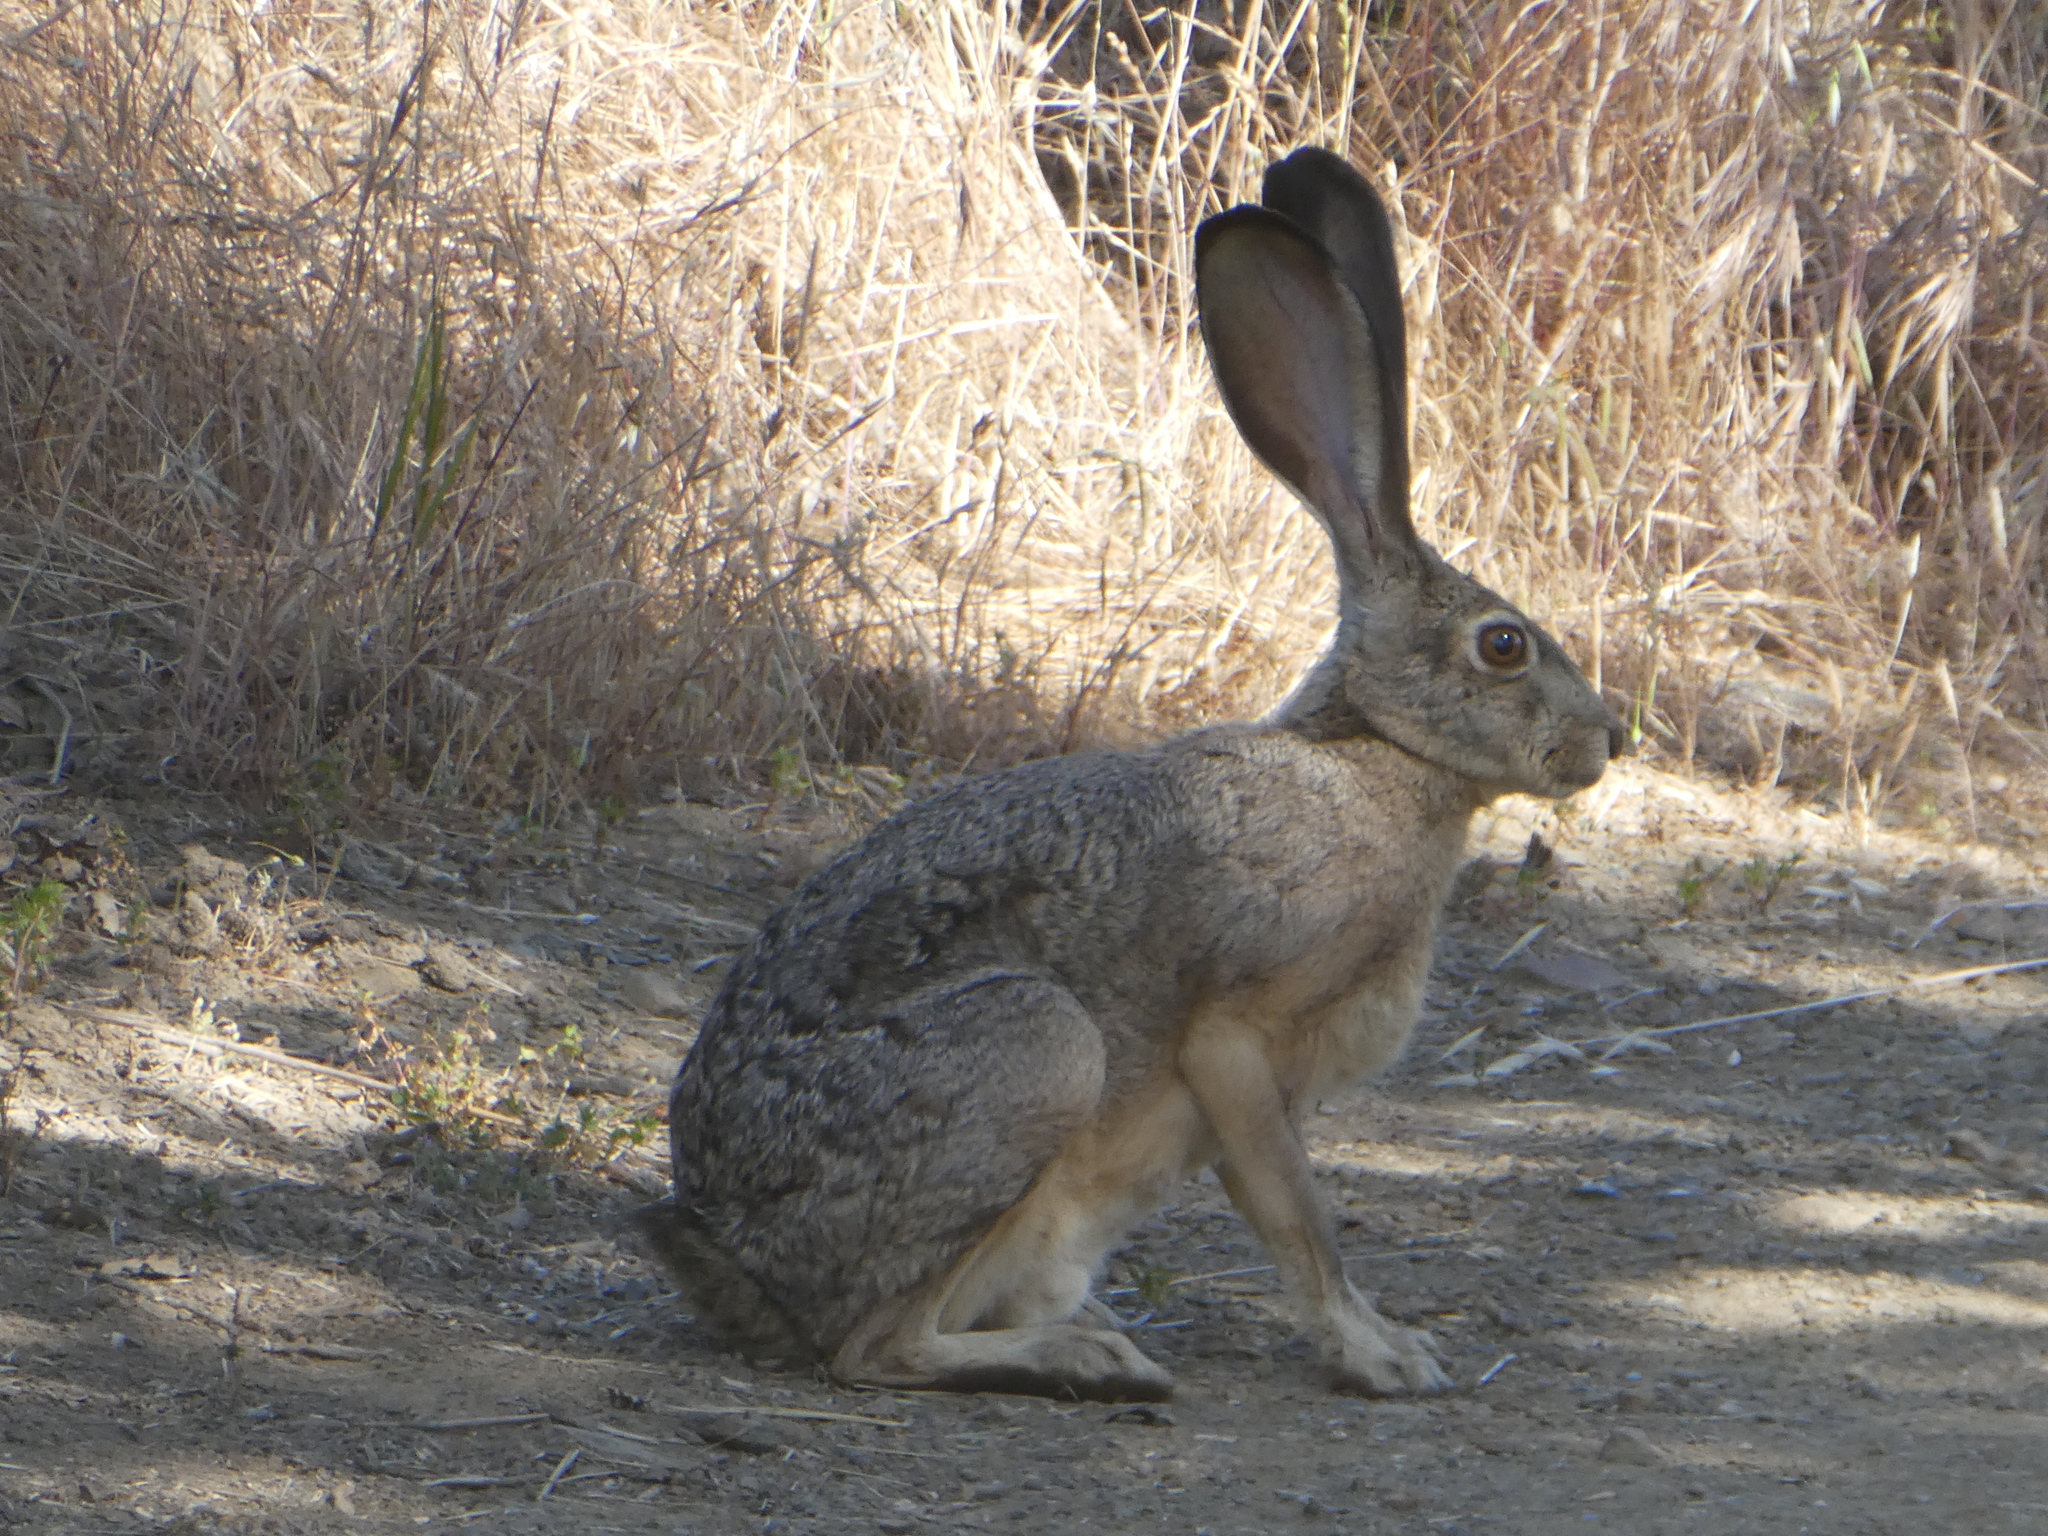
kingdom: Animalia
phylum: Chordata
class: Mammalia
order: Lagomorpha
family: Leporidae
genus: Lepus
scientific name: Lepus californicus
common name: Black-tailed jackrabbit
